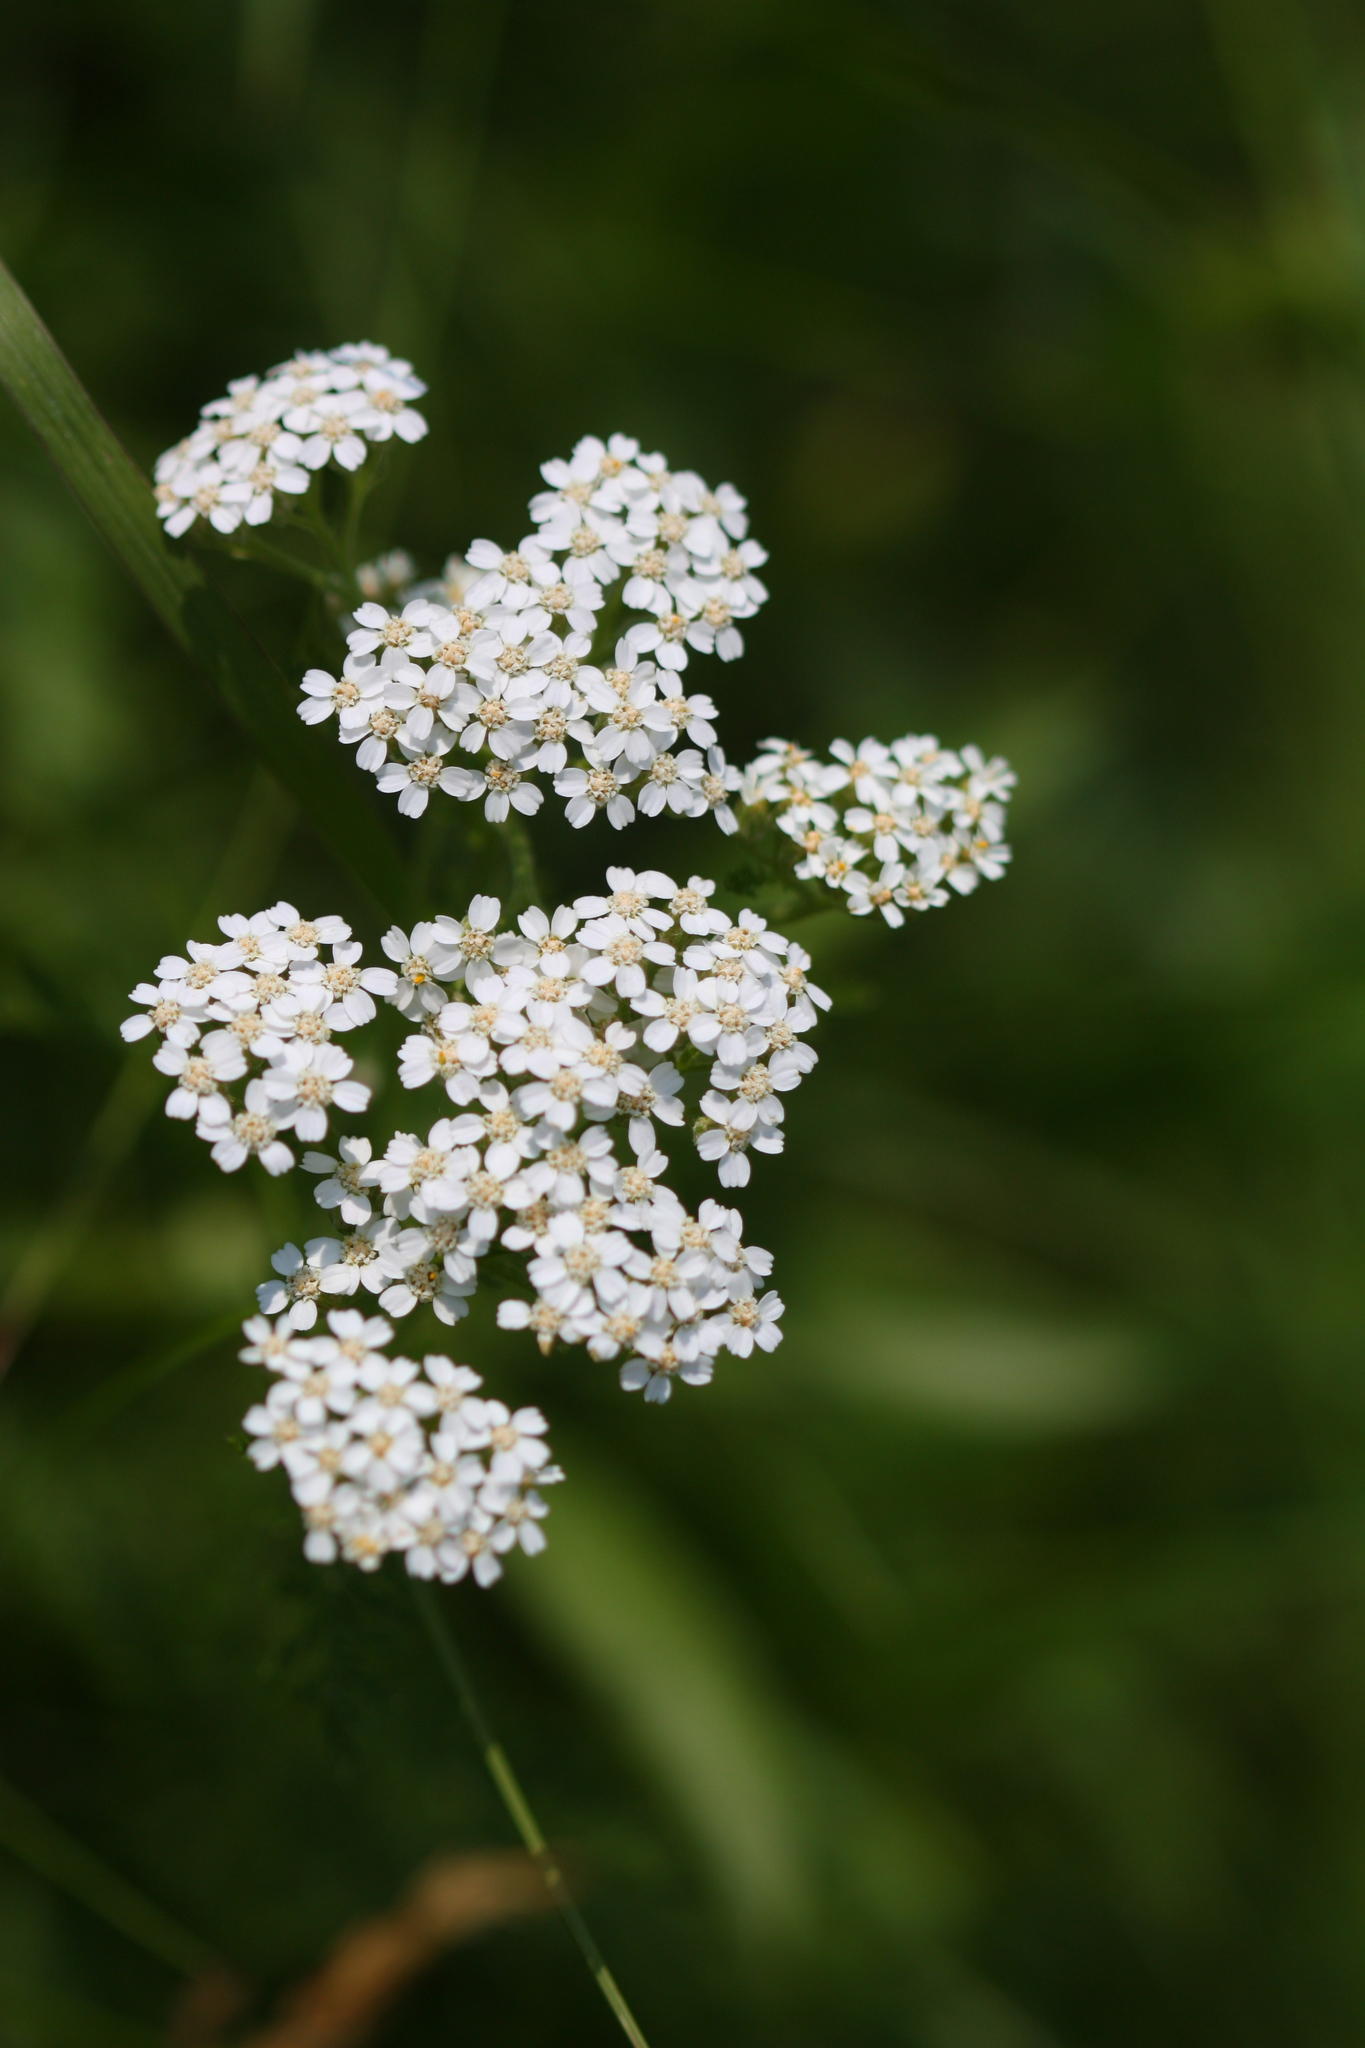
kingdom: Plantae
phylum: Tracheophyta
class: Magnoliopsida
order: Asterales
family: Asteraceae
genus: Achillea
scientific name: Achillea millefolium
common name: Yarrow
